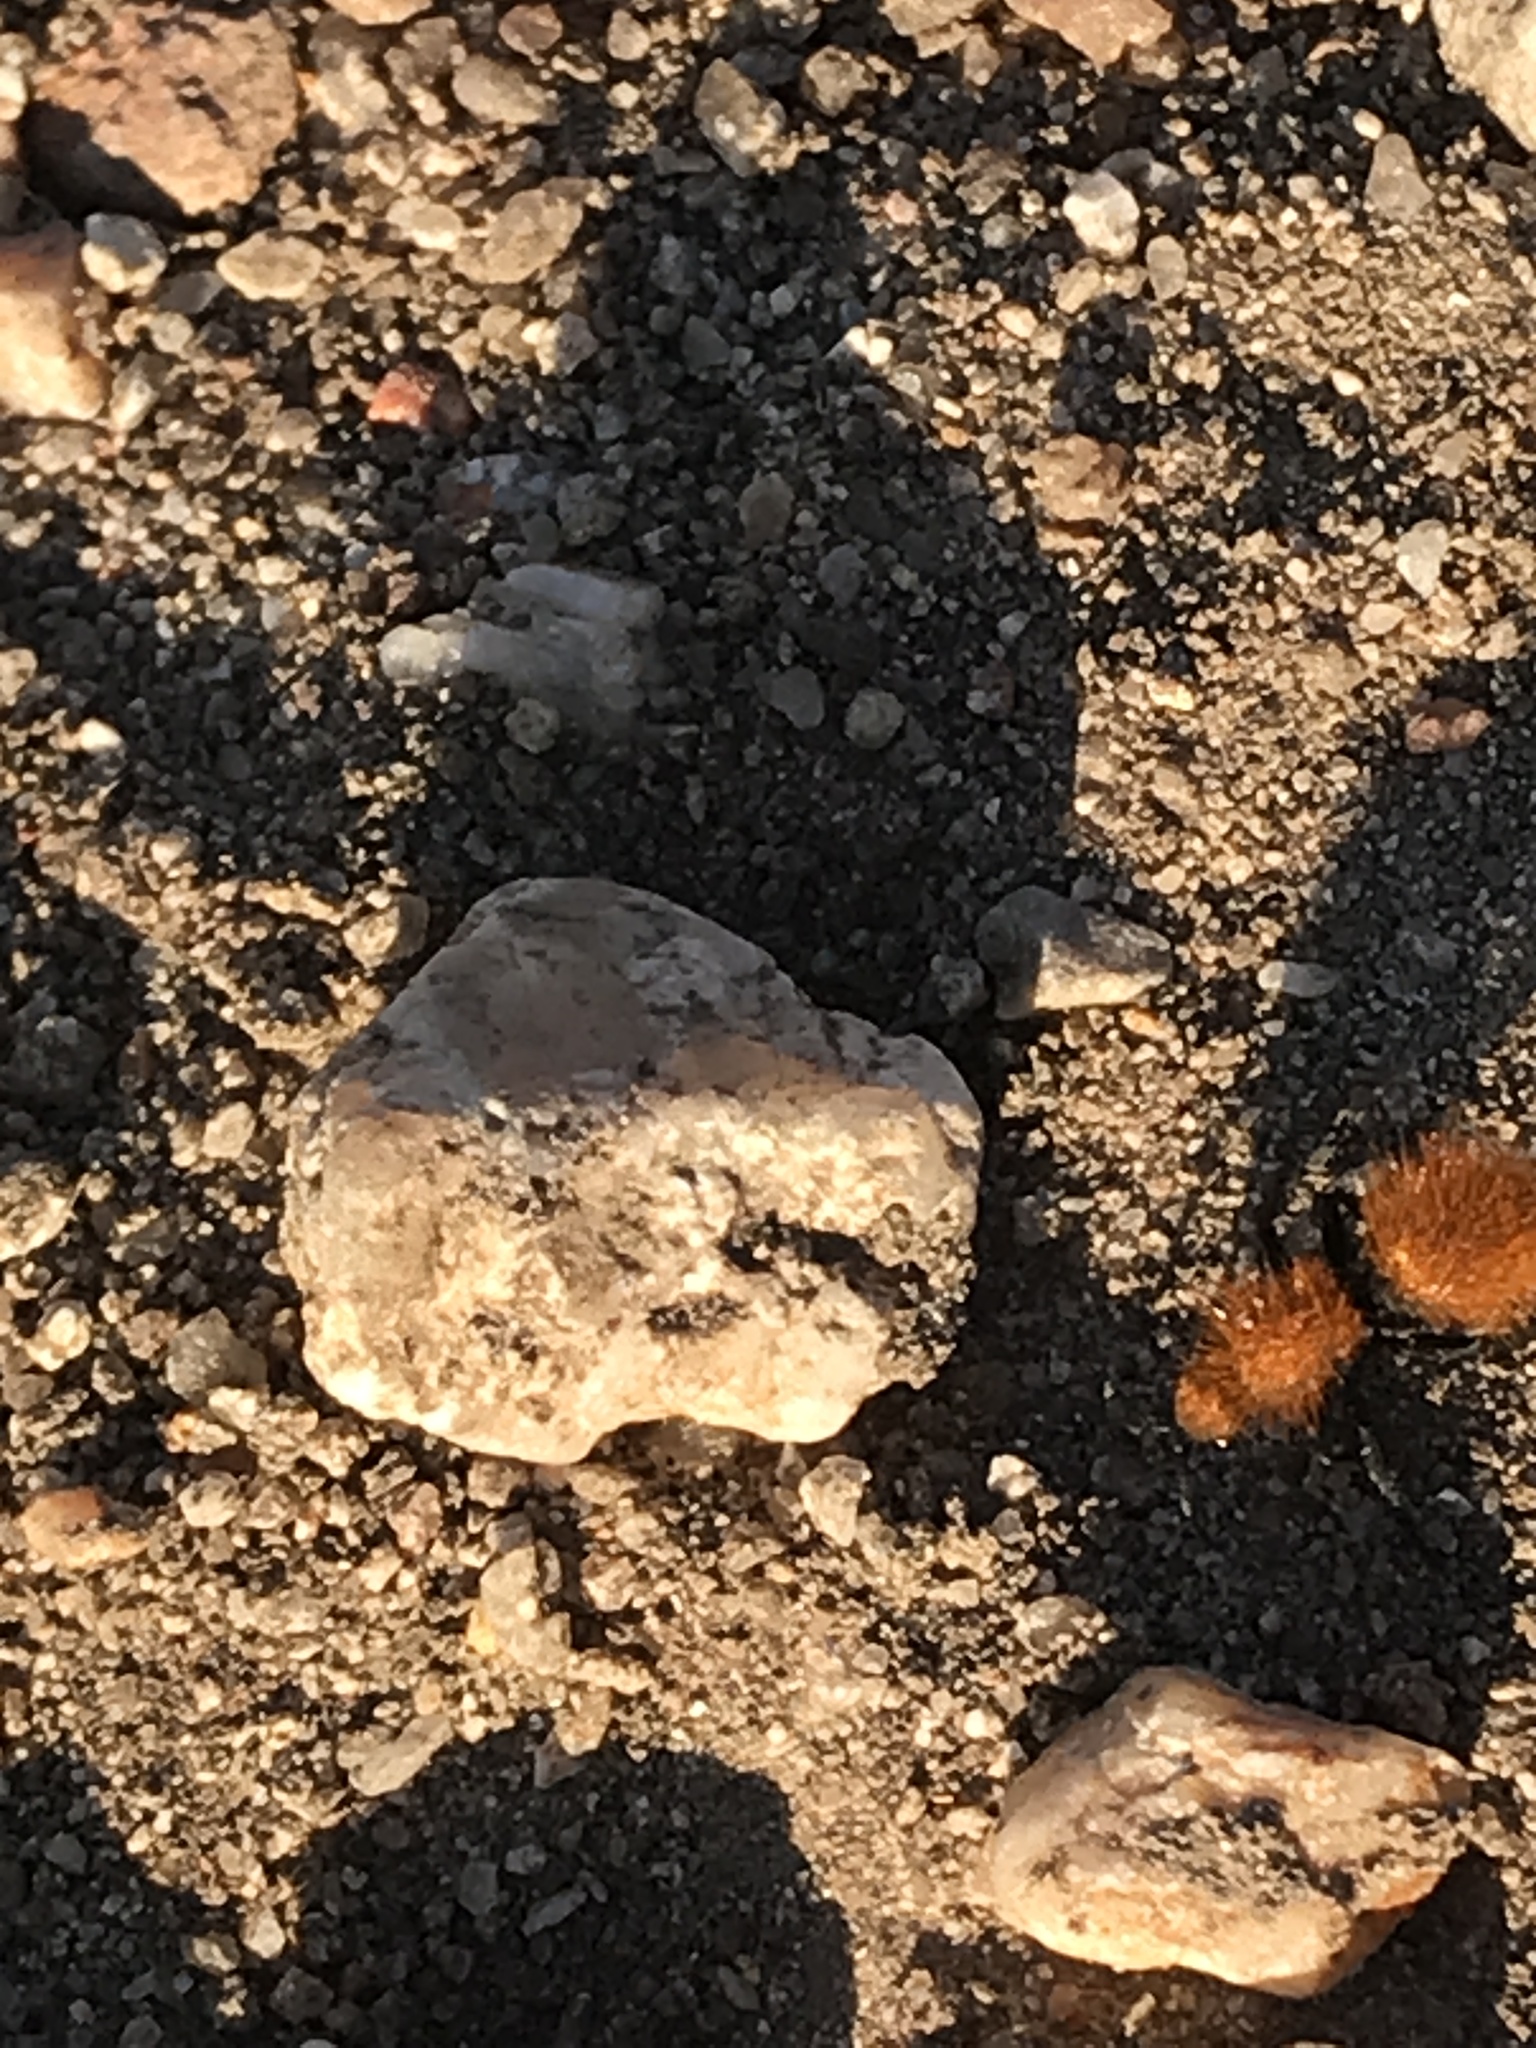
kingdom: Animalia
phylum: Arthropoda
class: Insecta
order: Hymenoptera
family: Mutillidae
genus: Dasymutilla
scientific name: Dasymutilla
